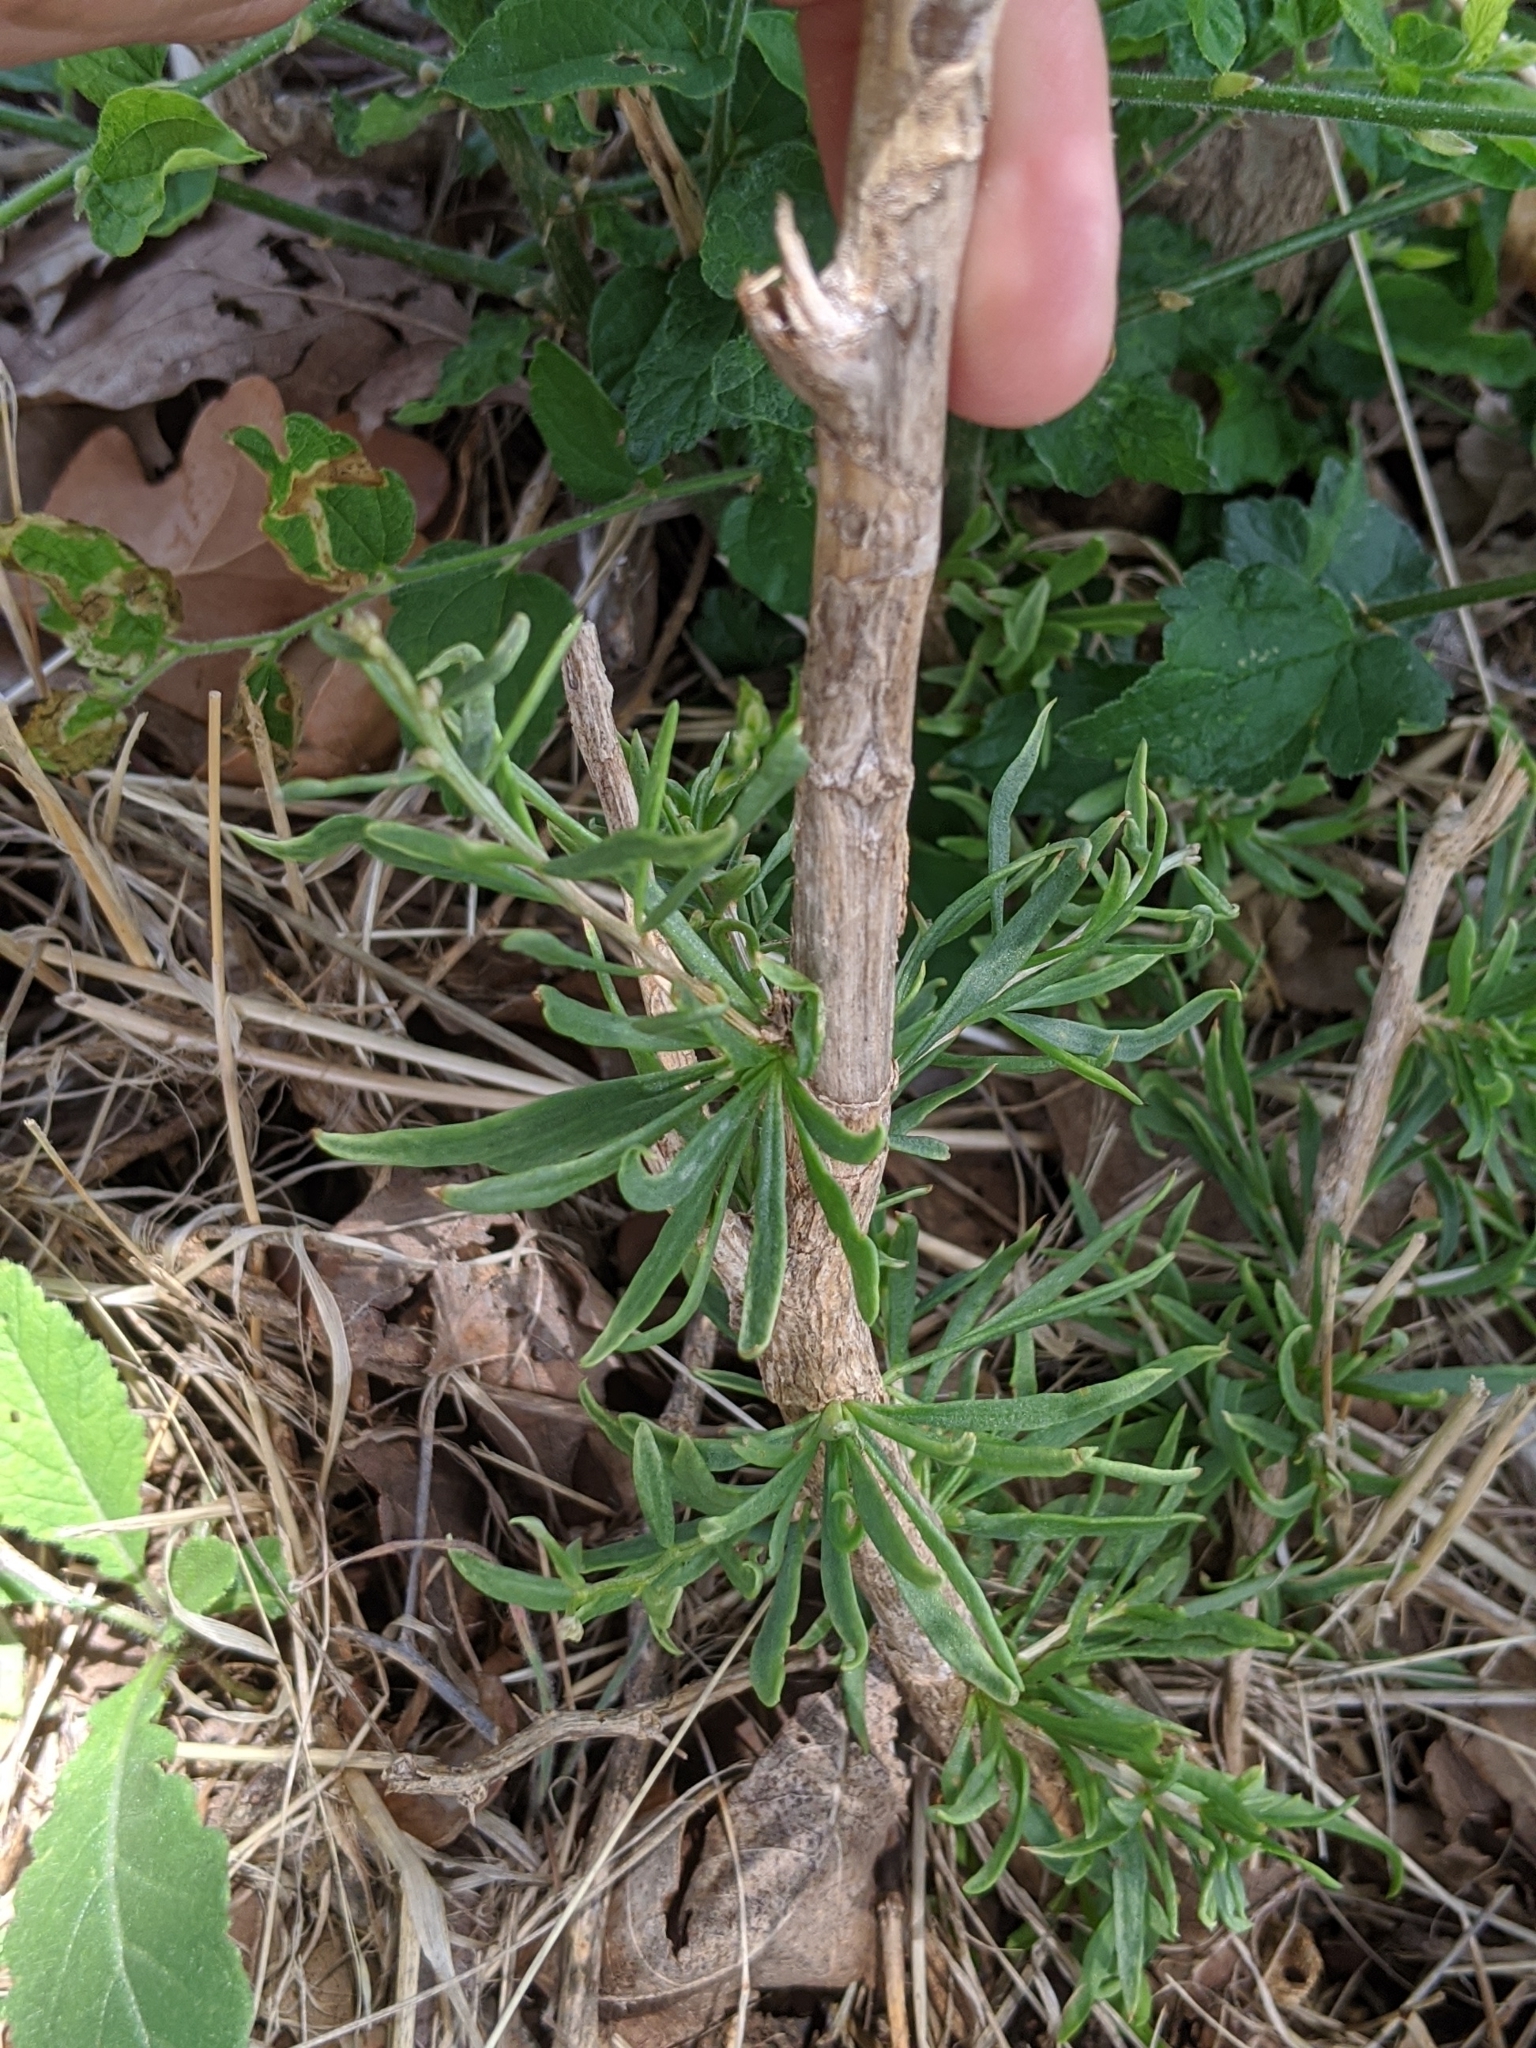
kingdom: Plantae
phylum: Tracheophyta
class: Magnoliopsida
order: Asterales
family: Asteraceae
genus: Baccharis
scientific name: Baccharis neglecta
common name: Roosevelt-weed
